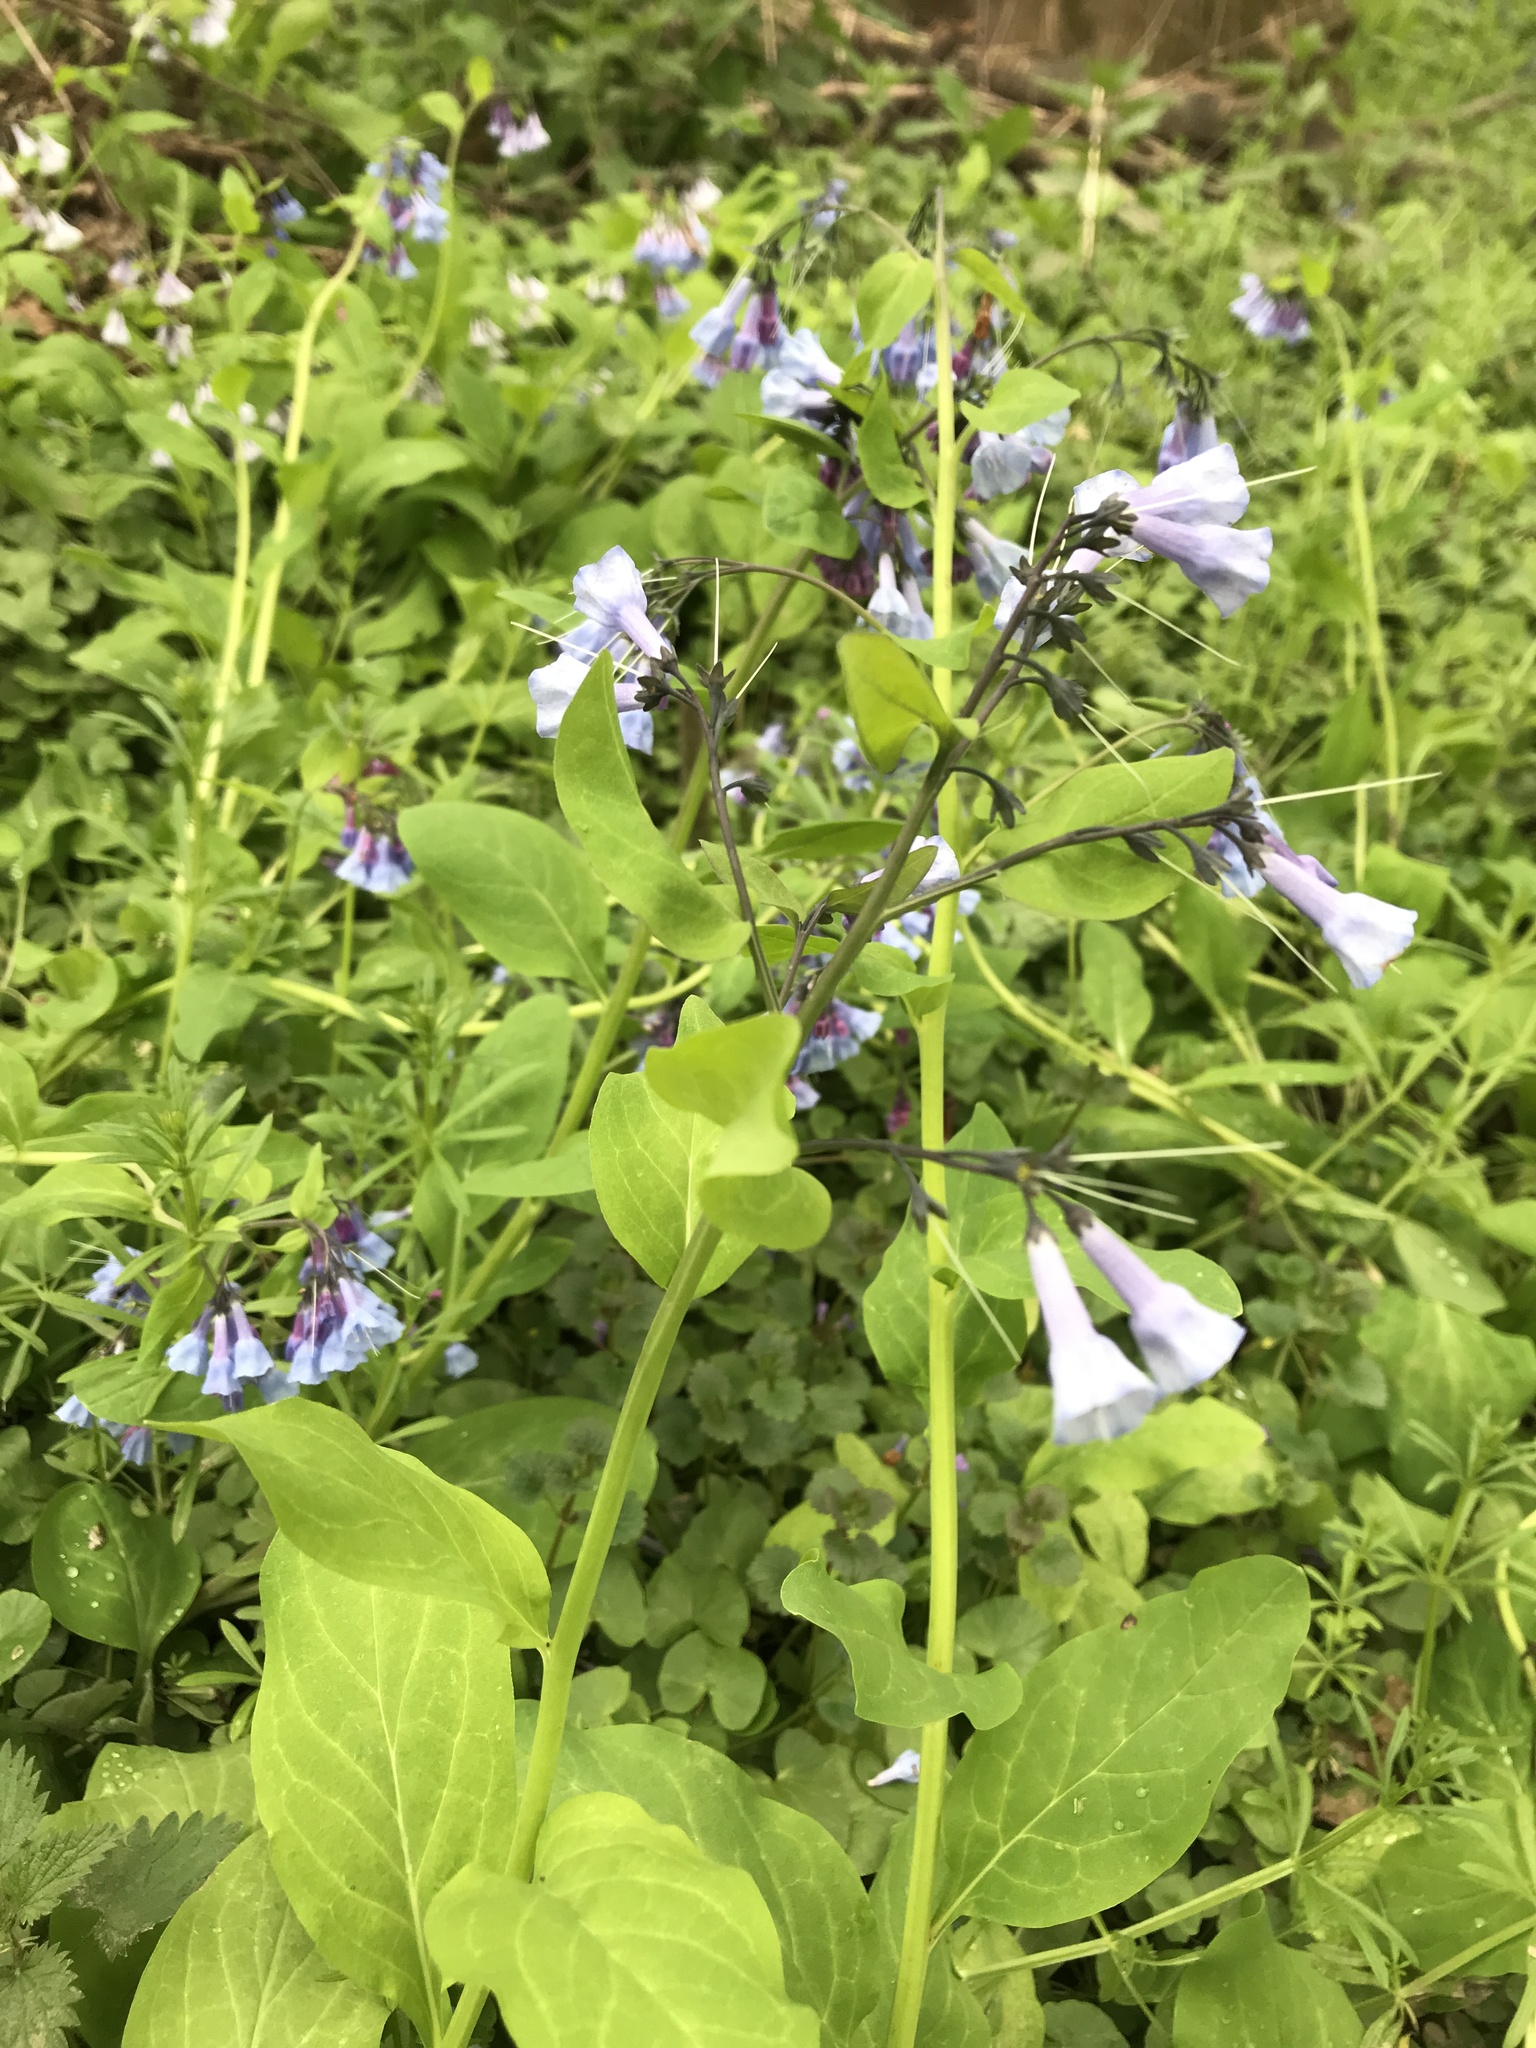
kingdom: Plantae
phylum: Tracheophyta
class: Magnoliopsida
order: Boraginales
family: Boraginaceae
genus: Mertensia
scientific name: Mertensia virginica
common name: Virginia bluebells
